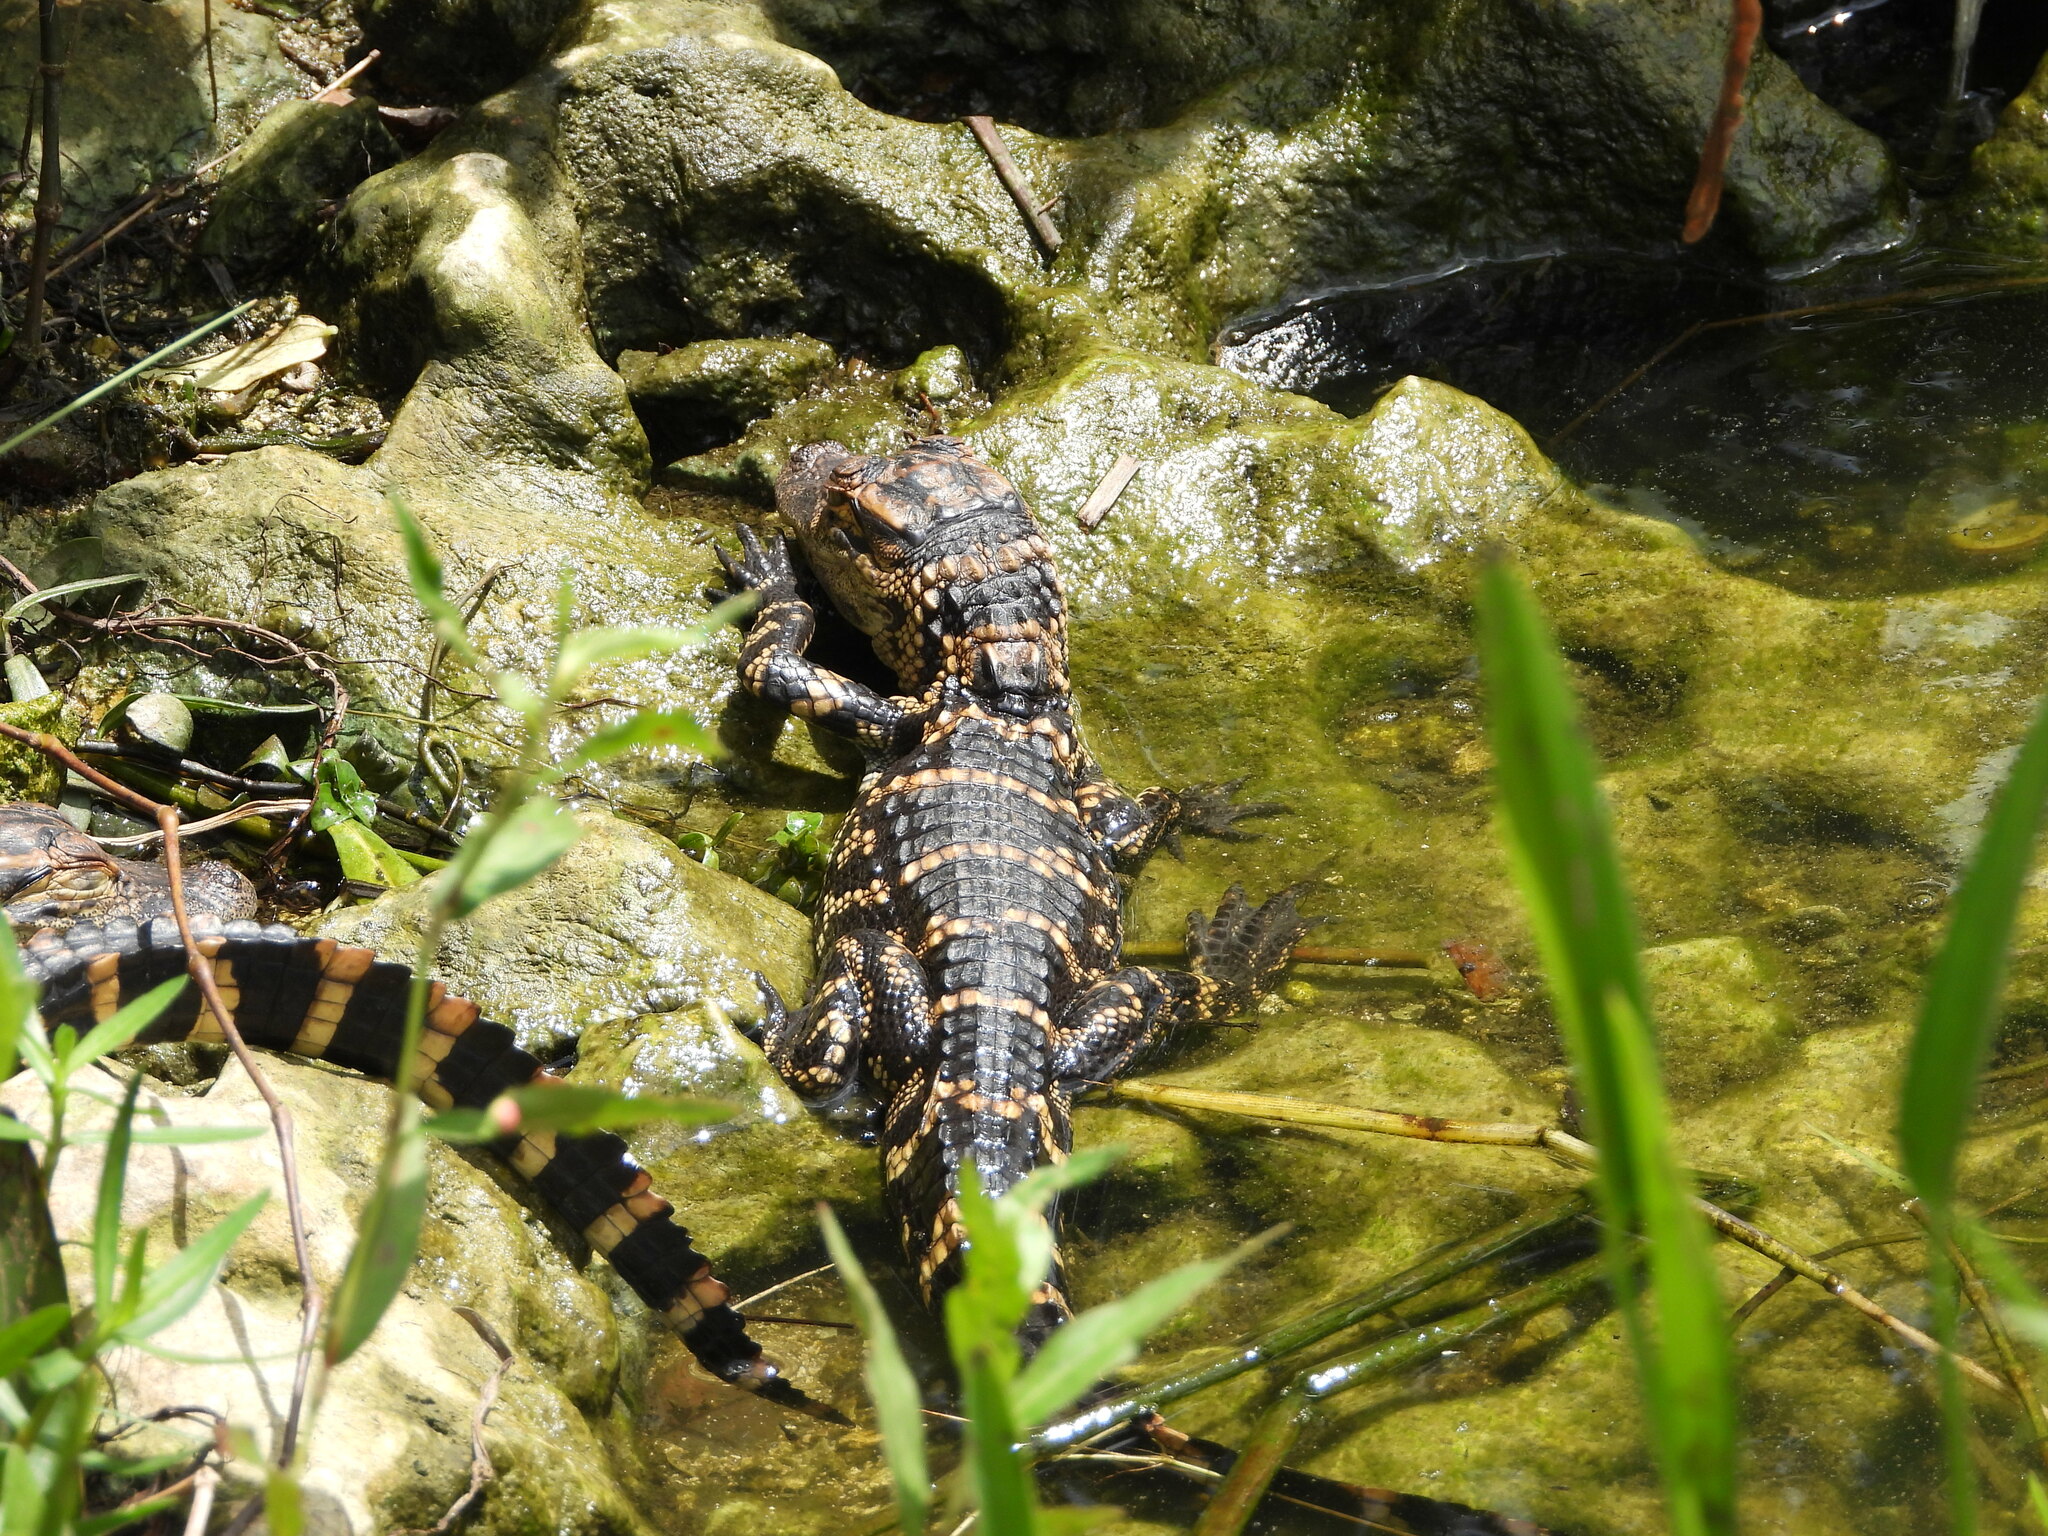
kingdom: Animalia
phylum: Chordata
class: Crocodylia
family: Alligatoridae
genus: Alligator
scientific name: Alligator mississippiensis
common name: American alligator
